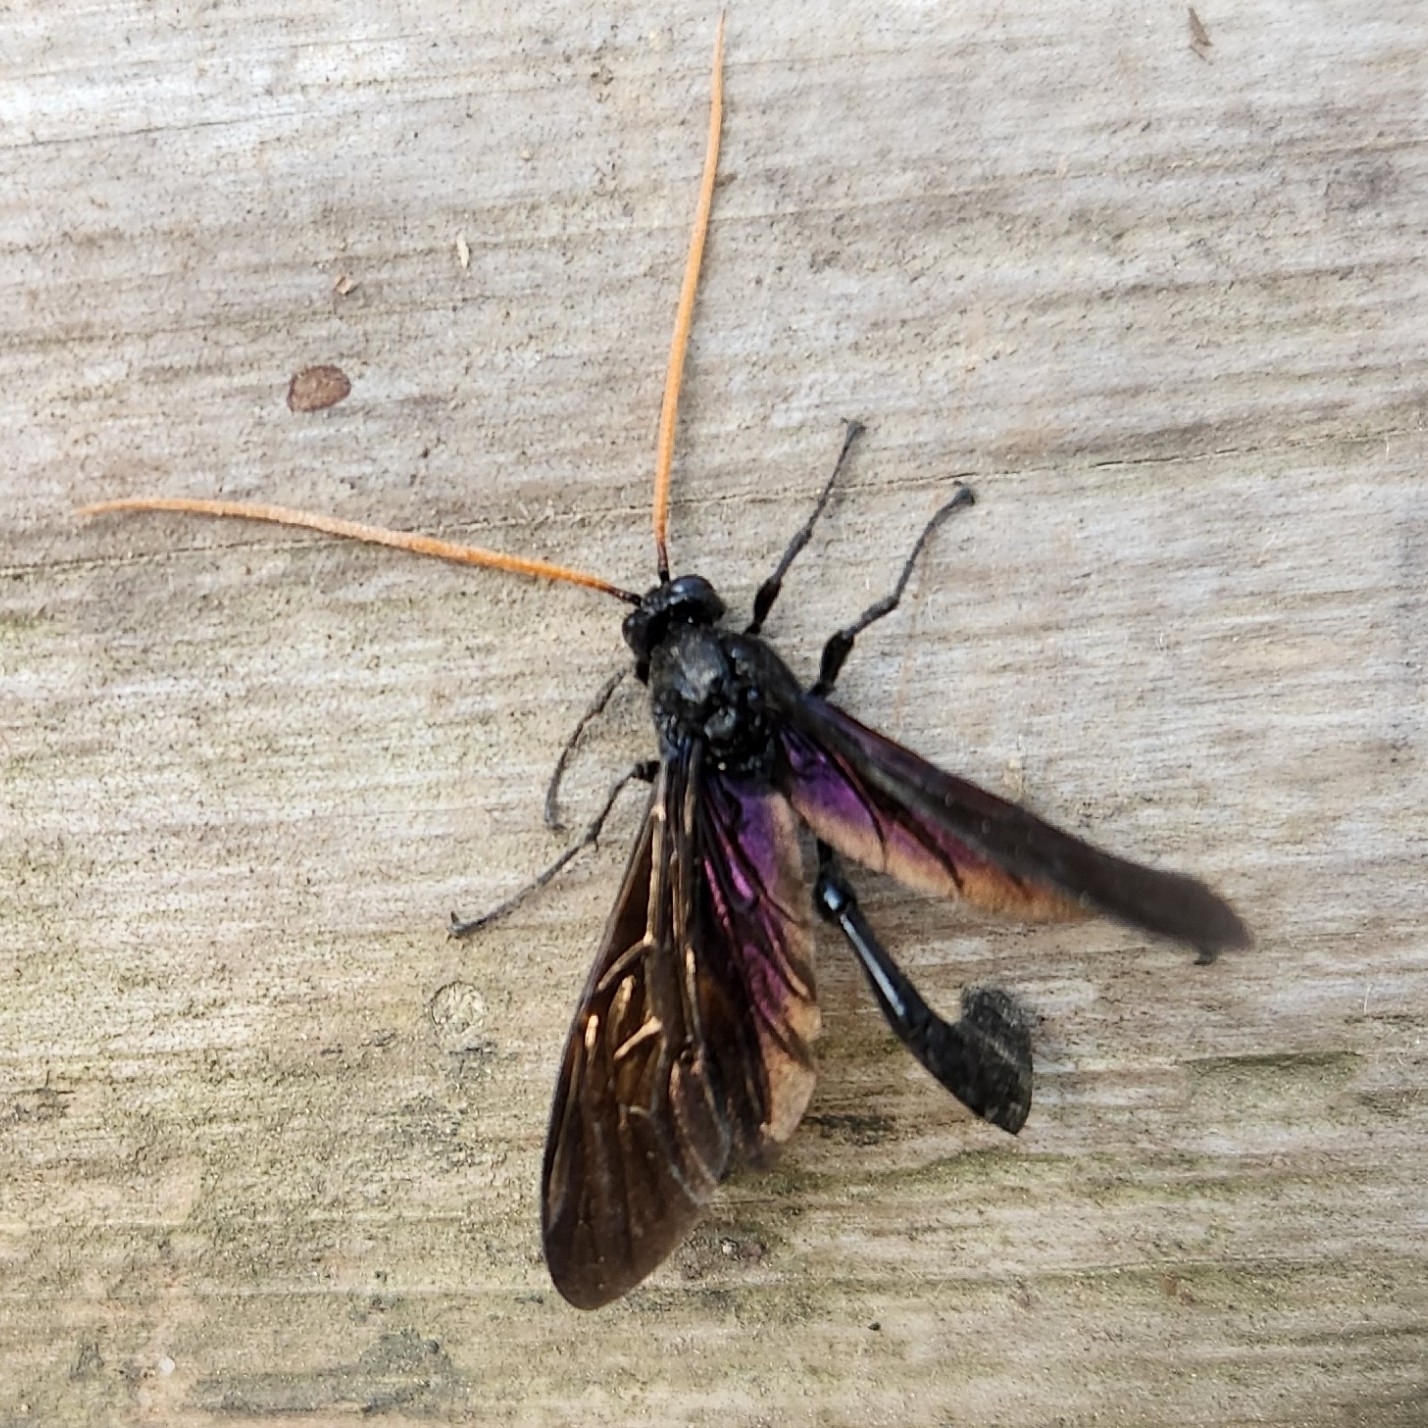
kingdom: Animalia
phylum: Arthropoda
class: Insecta
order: Hymenoptera
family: Ichneumonidae
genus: Thyreodon
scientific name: Thyreodon atricolor
